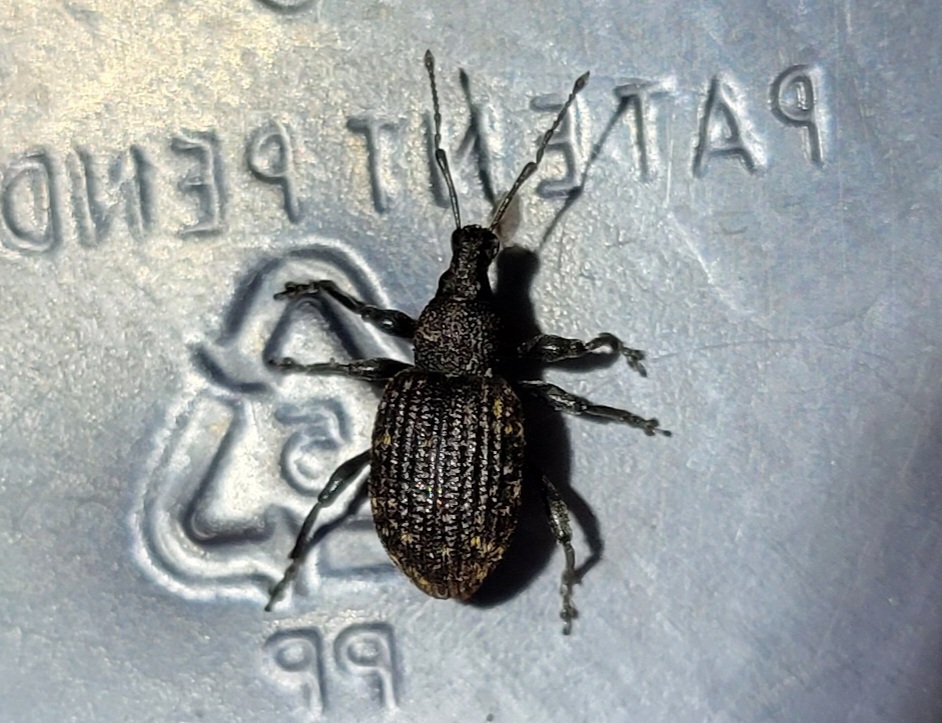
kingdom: Animalia
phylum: Arthropoda
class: Insecta
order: Coleoptera
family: Curculionidae
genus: Otiorhynchus
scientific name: Otiorhynchus sulcatus
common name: Black vine weevil
